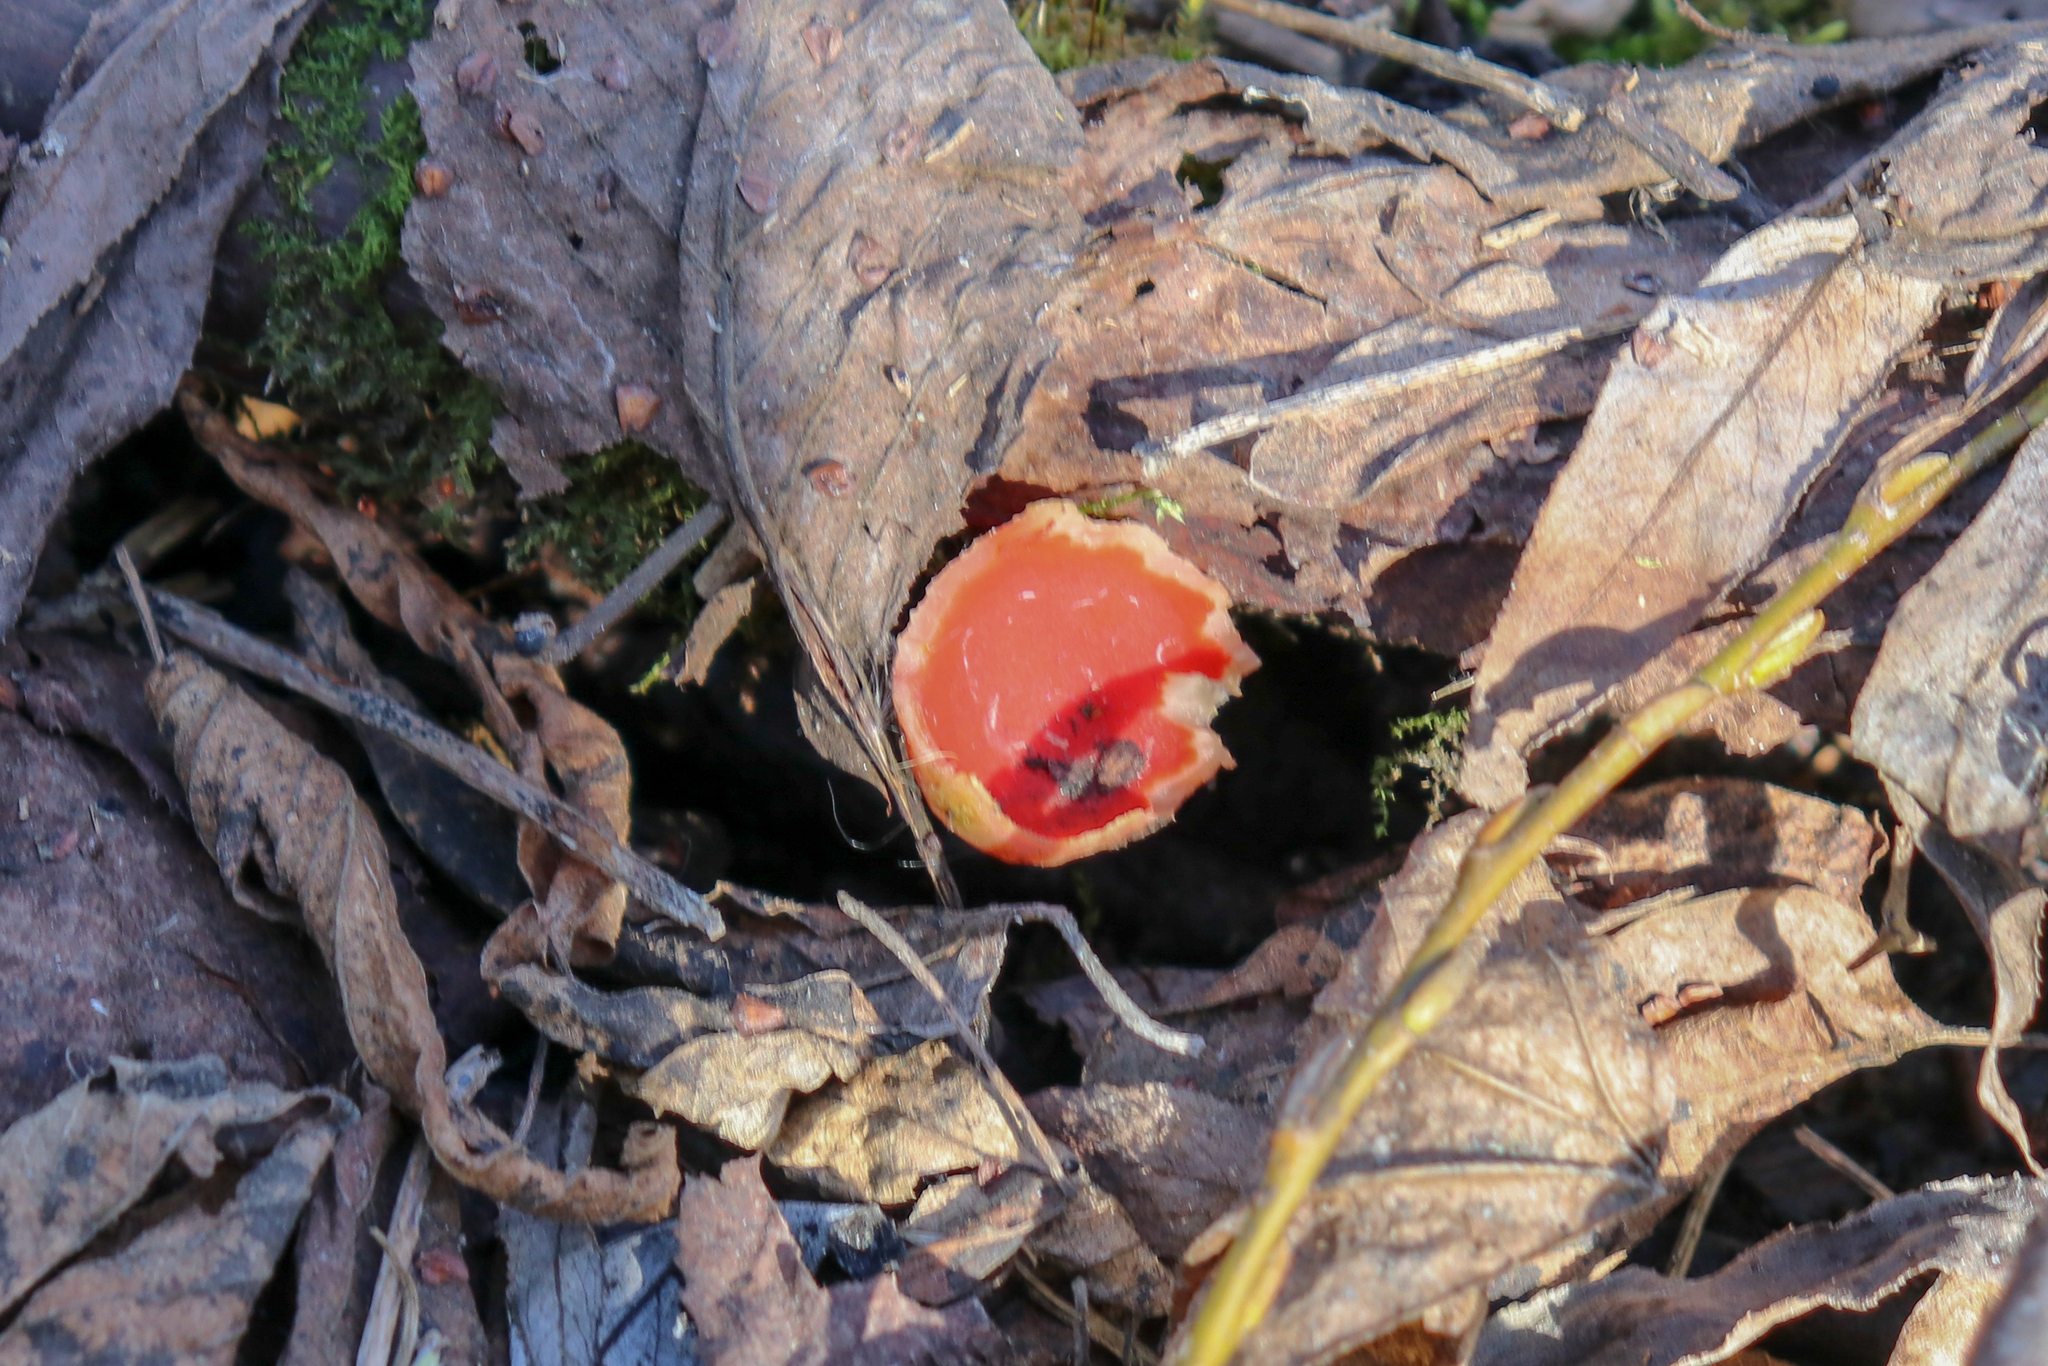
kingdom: Fungi
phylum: Ascomycota
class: Pezizomycetes
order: Pezizales
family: Sarcoscyphaceae
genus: Sarcoscypha
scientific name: Sarcoscypha austriaca
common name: Scarlet elfcup
